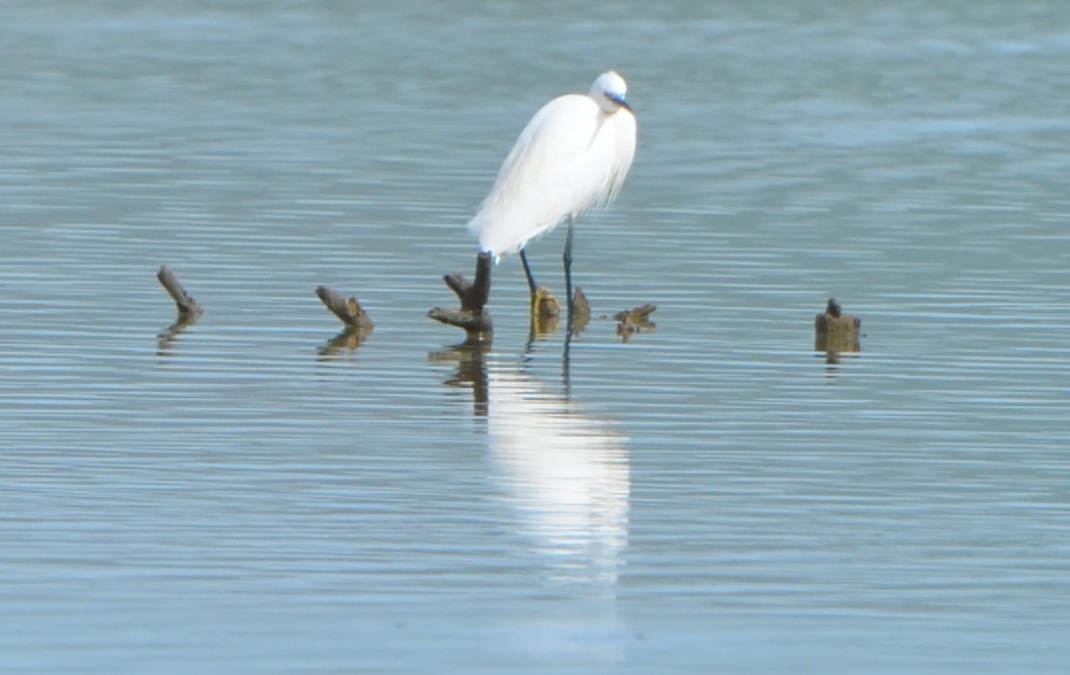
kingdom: Animalia
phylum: Chordata
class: Aves
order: Pelecaniformes
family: Ardeidae
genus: Egretta
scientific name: Egretta garzetta
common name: Little egret
